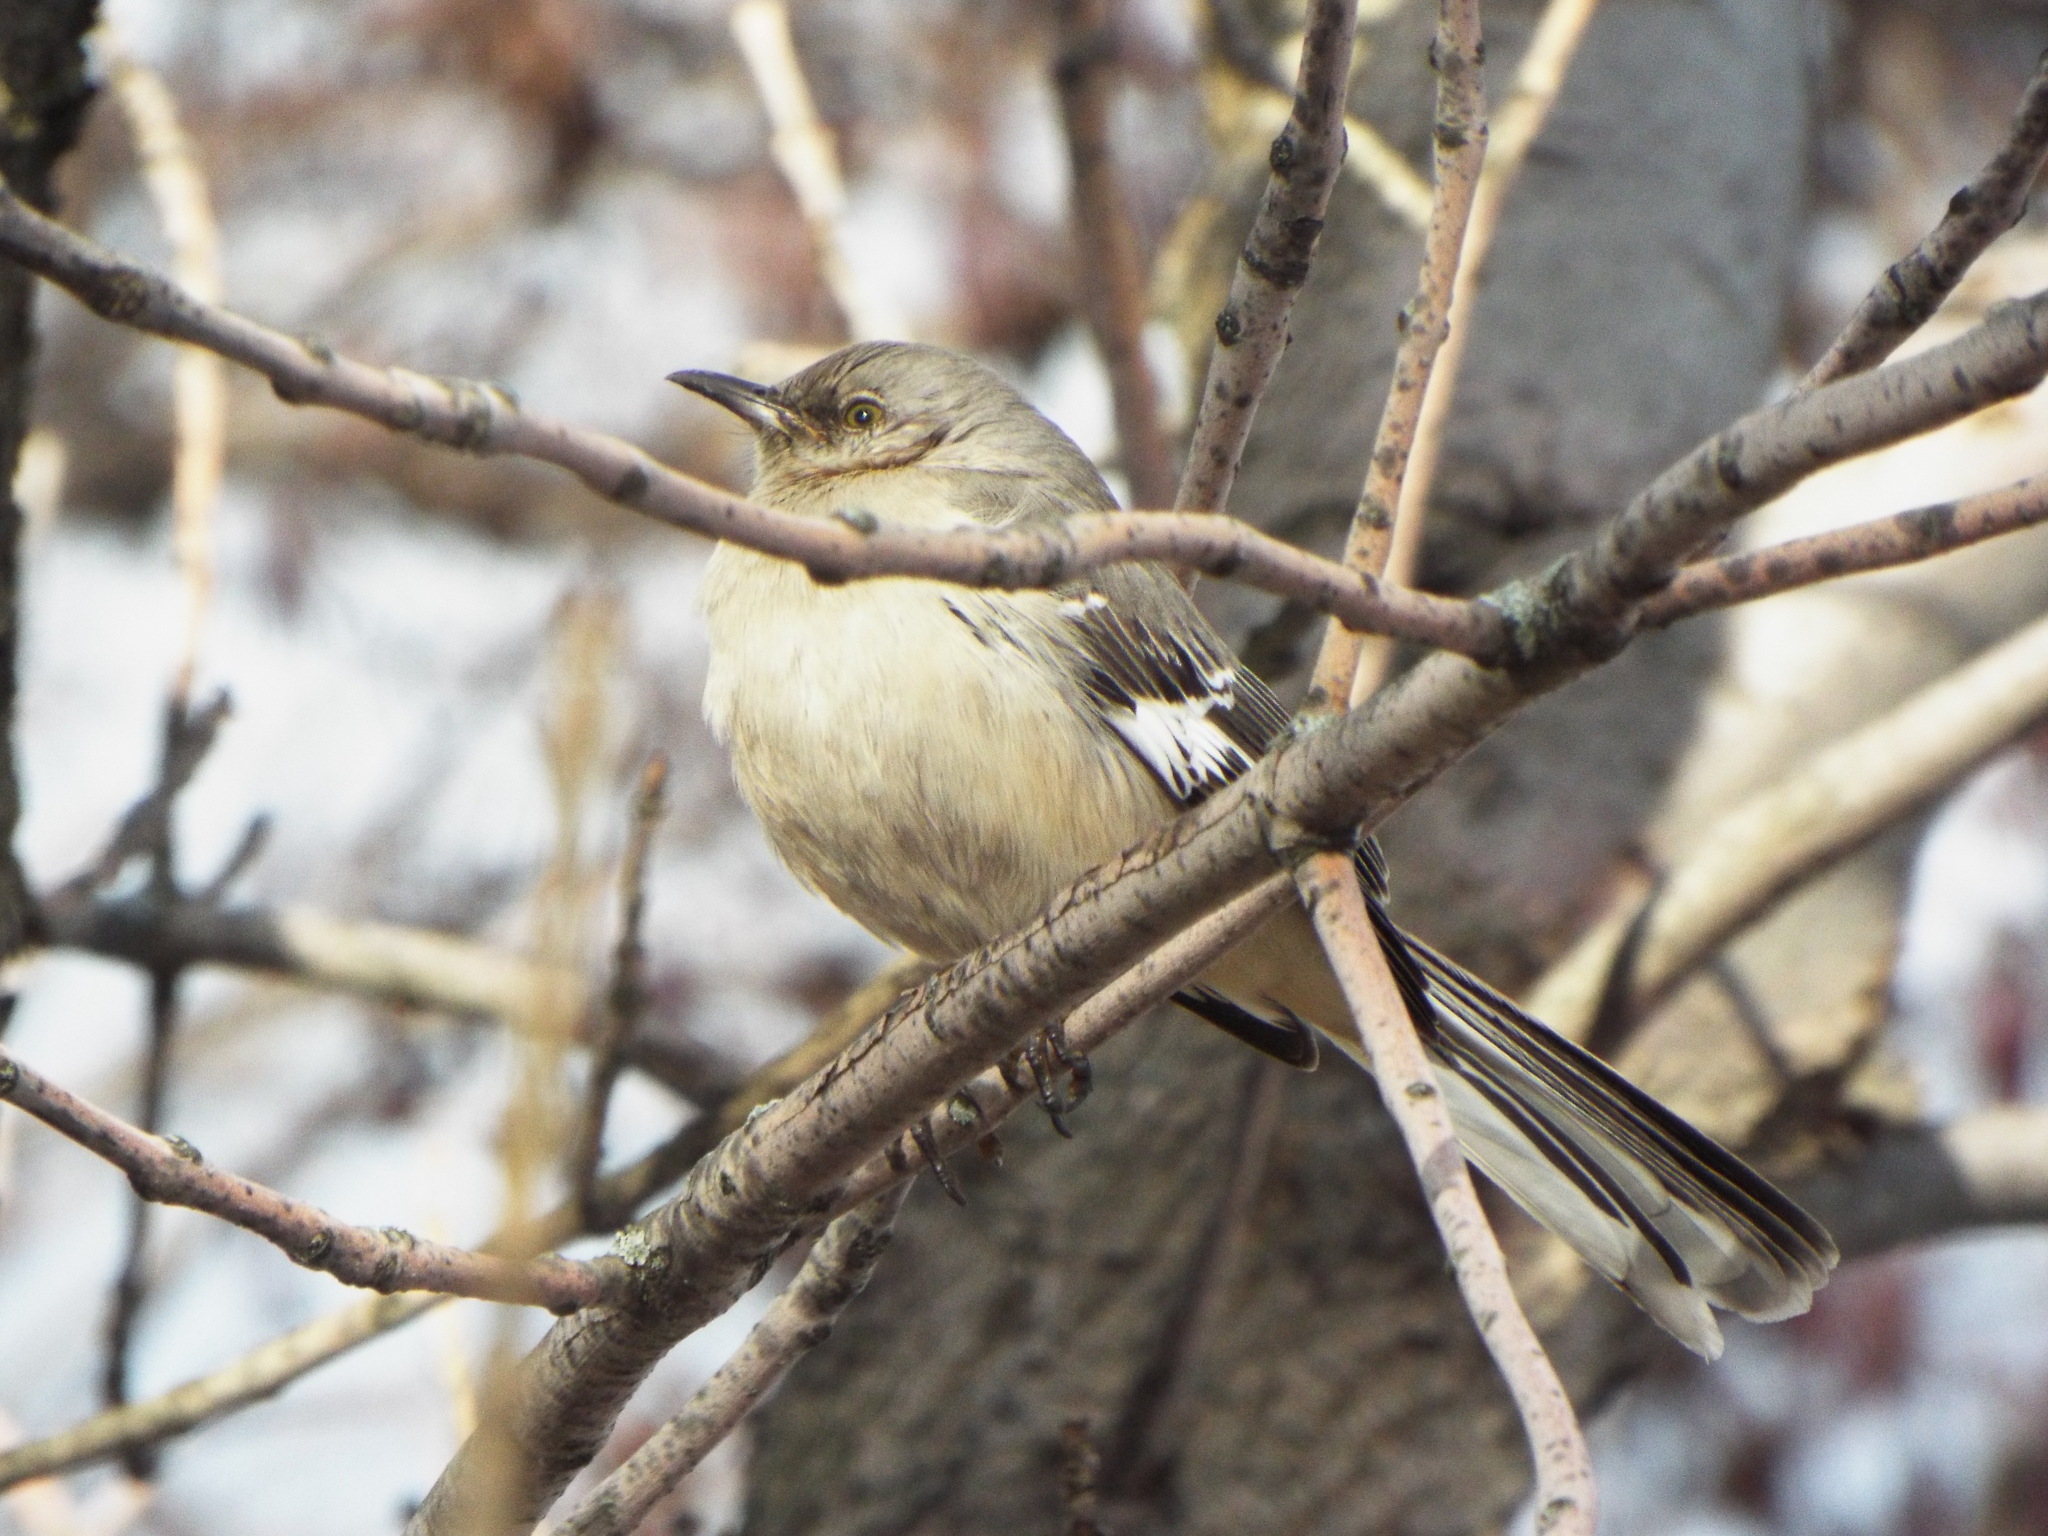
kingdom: Animalia
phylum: Chordata
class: Aves
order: Passeriformes
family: Mimidae
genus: Mimus
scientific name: Mimus polyglottos
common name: Northern mockingbird
